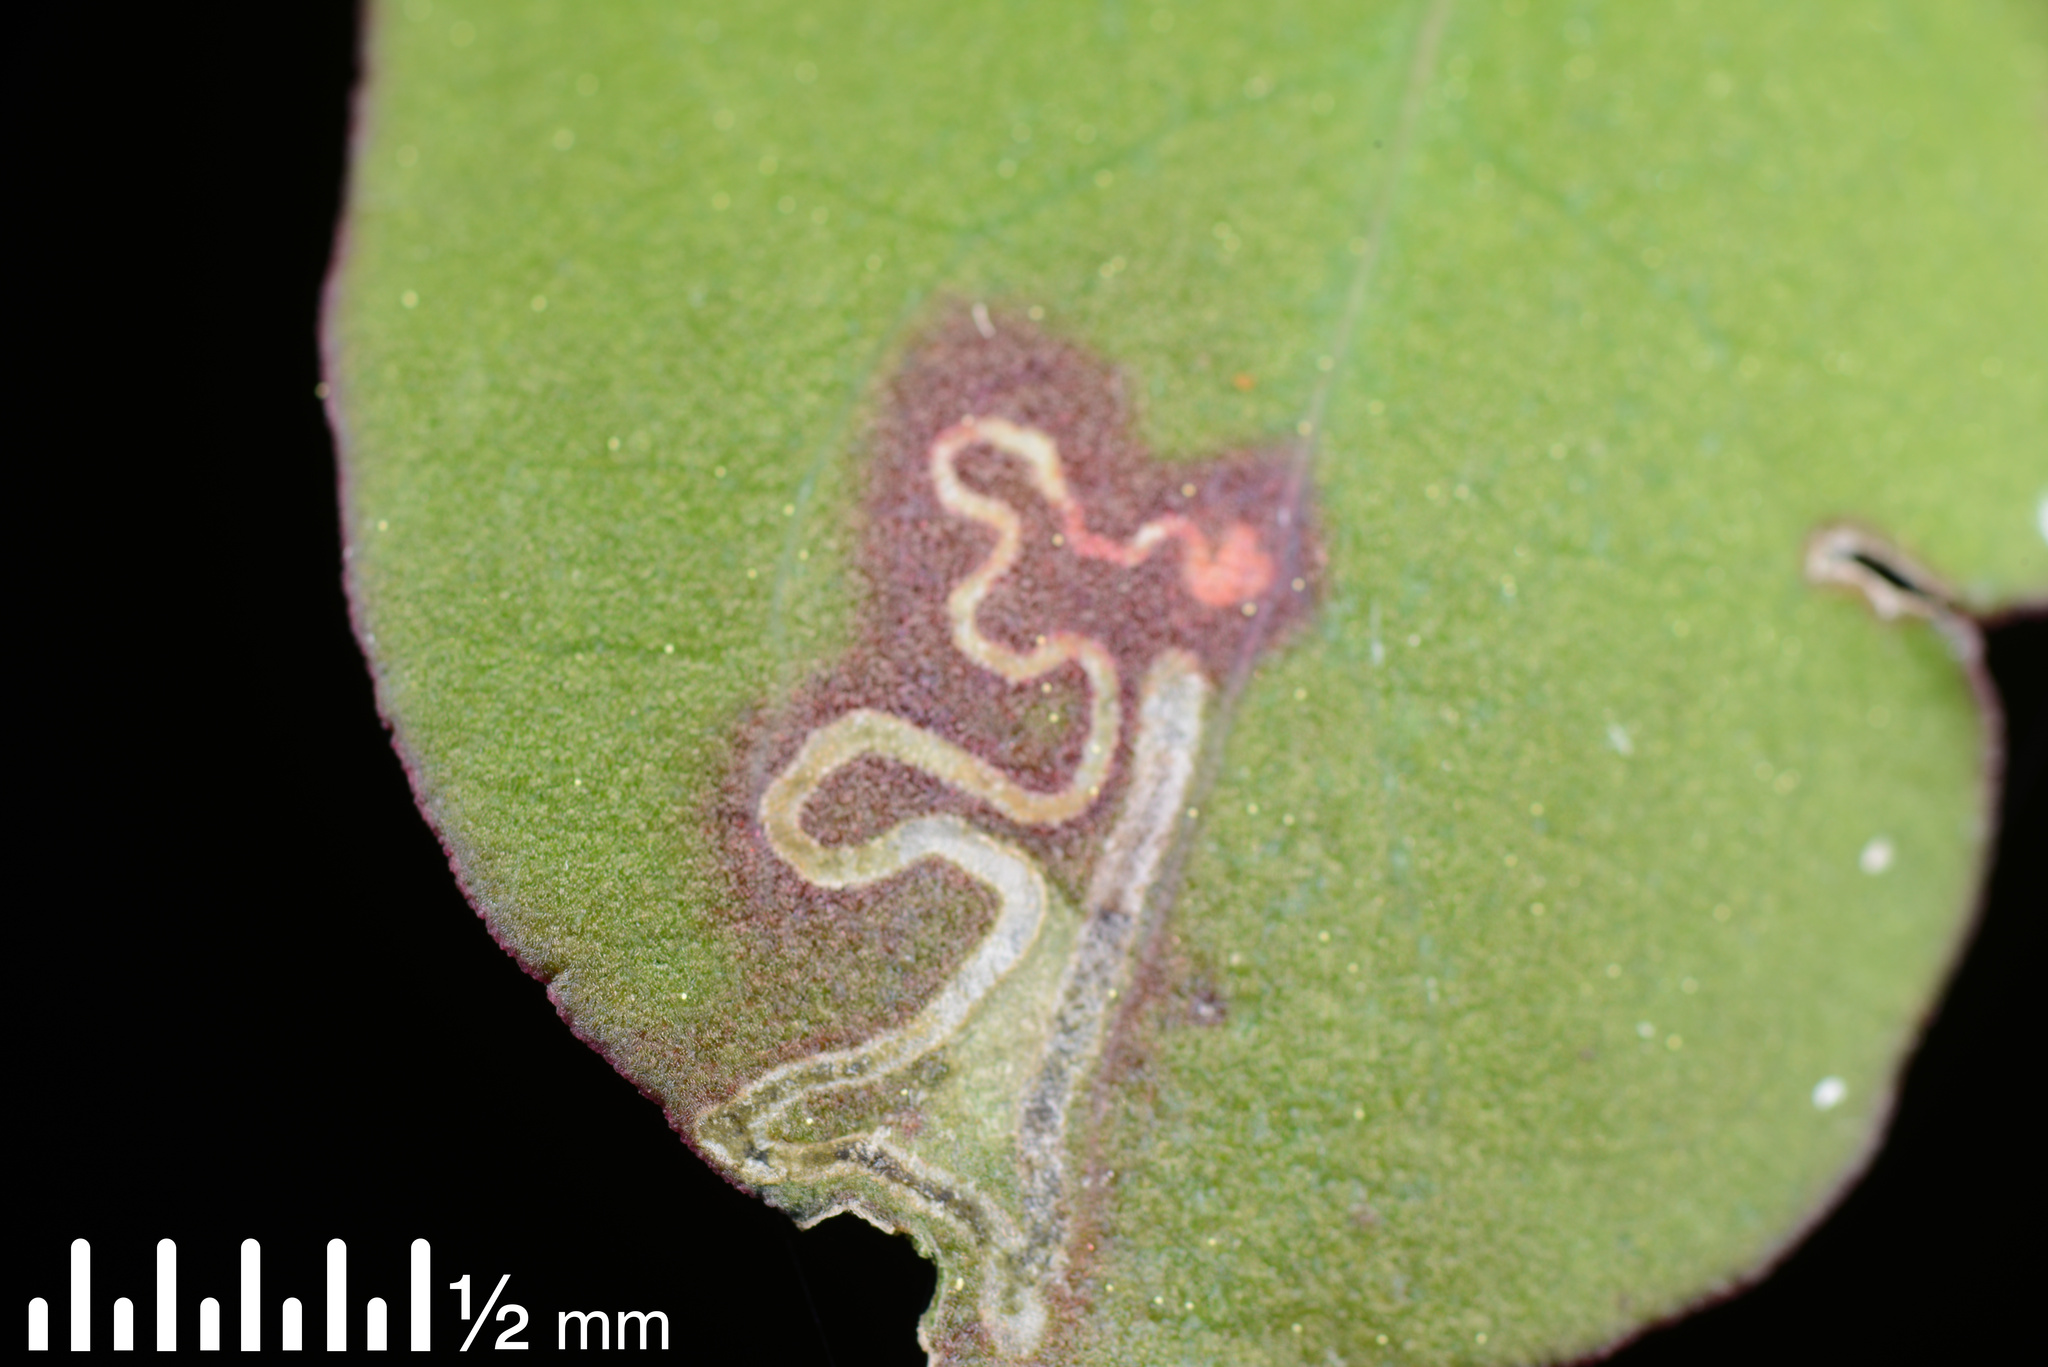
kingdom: Animalia
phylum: Arthropoda
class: Insecta
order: Lepidoptera
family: Momphidae
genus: Zapyrastra
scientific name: Zapyrastra calliphana
